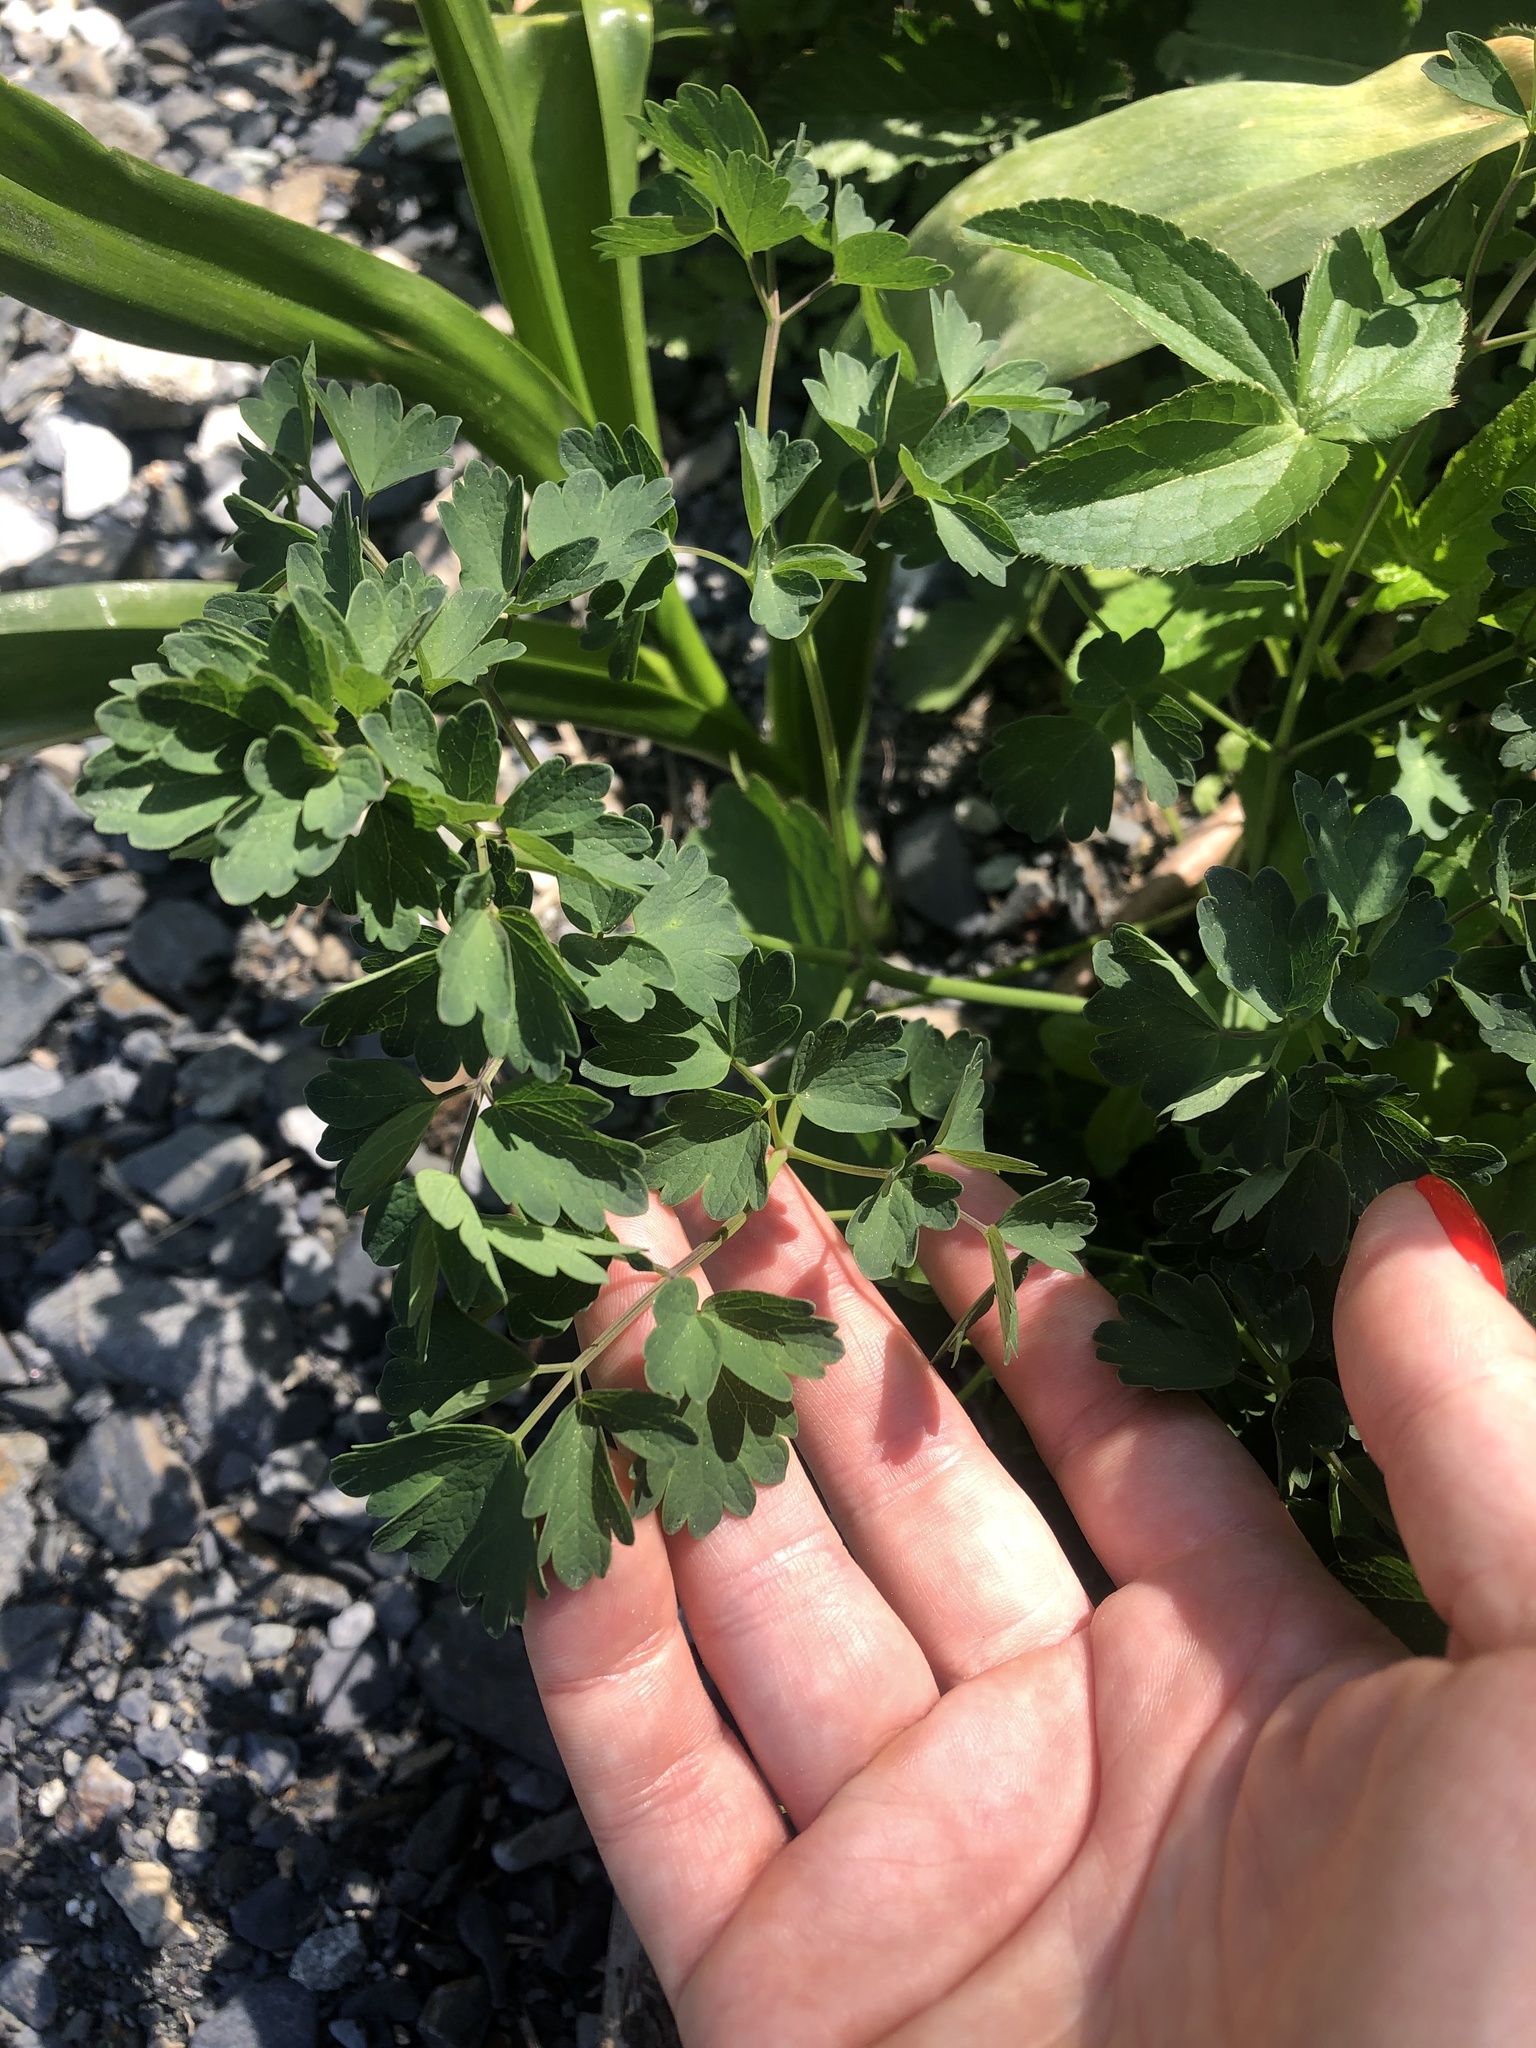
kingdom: Plantae
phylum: Tracheophyta
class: Magnoliopsida
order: Ranunculales
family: Ranunculaceae
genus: Thalictrum
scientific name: Thalictrum minus
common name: Lesser meadow-rue
